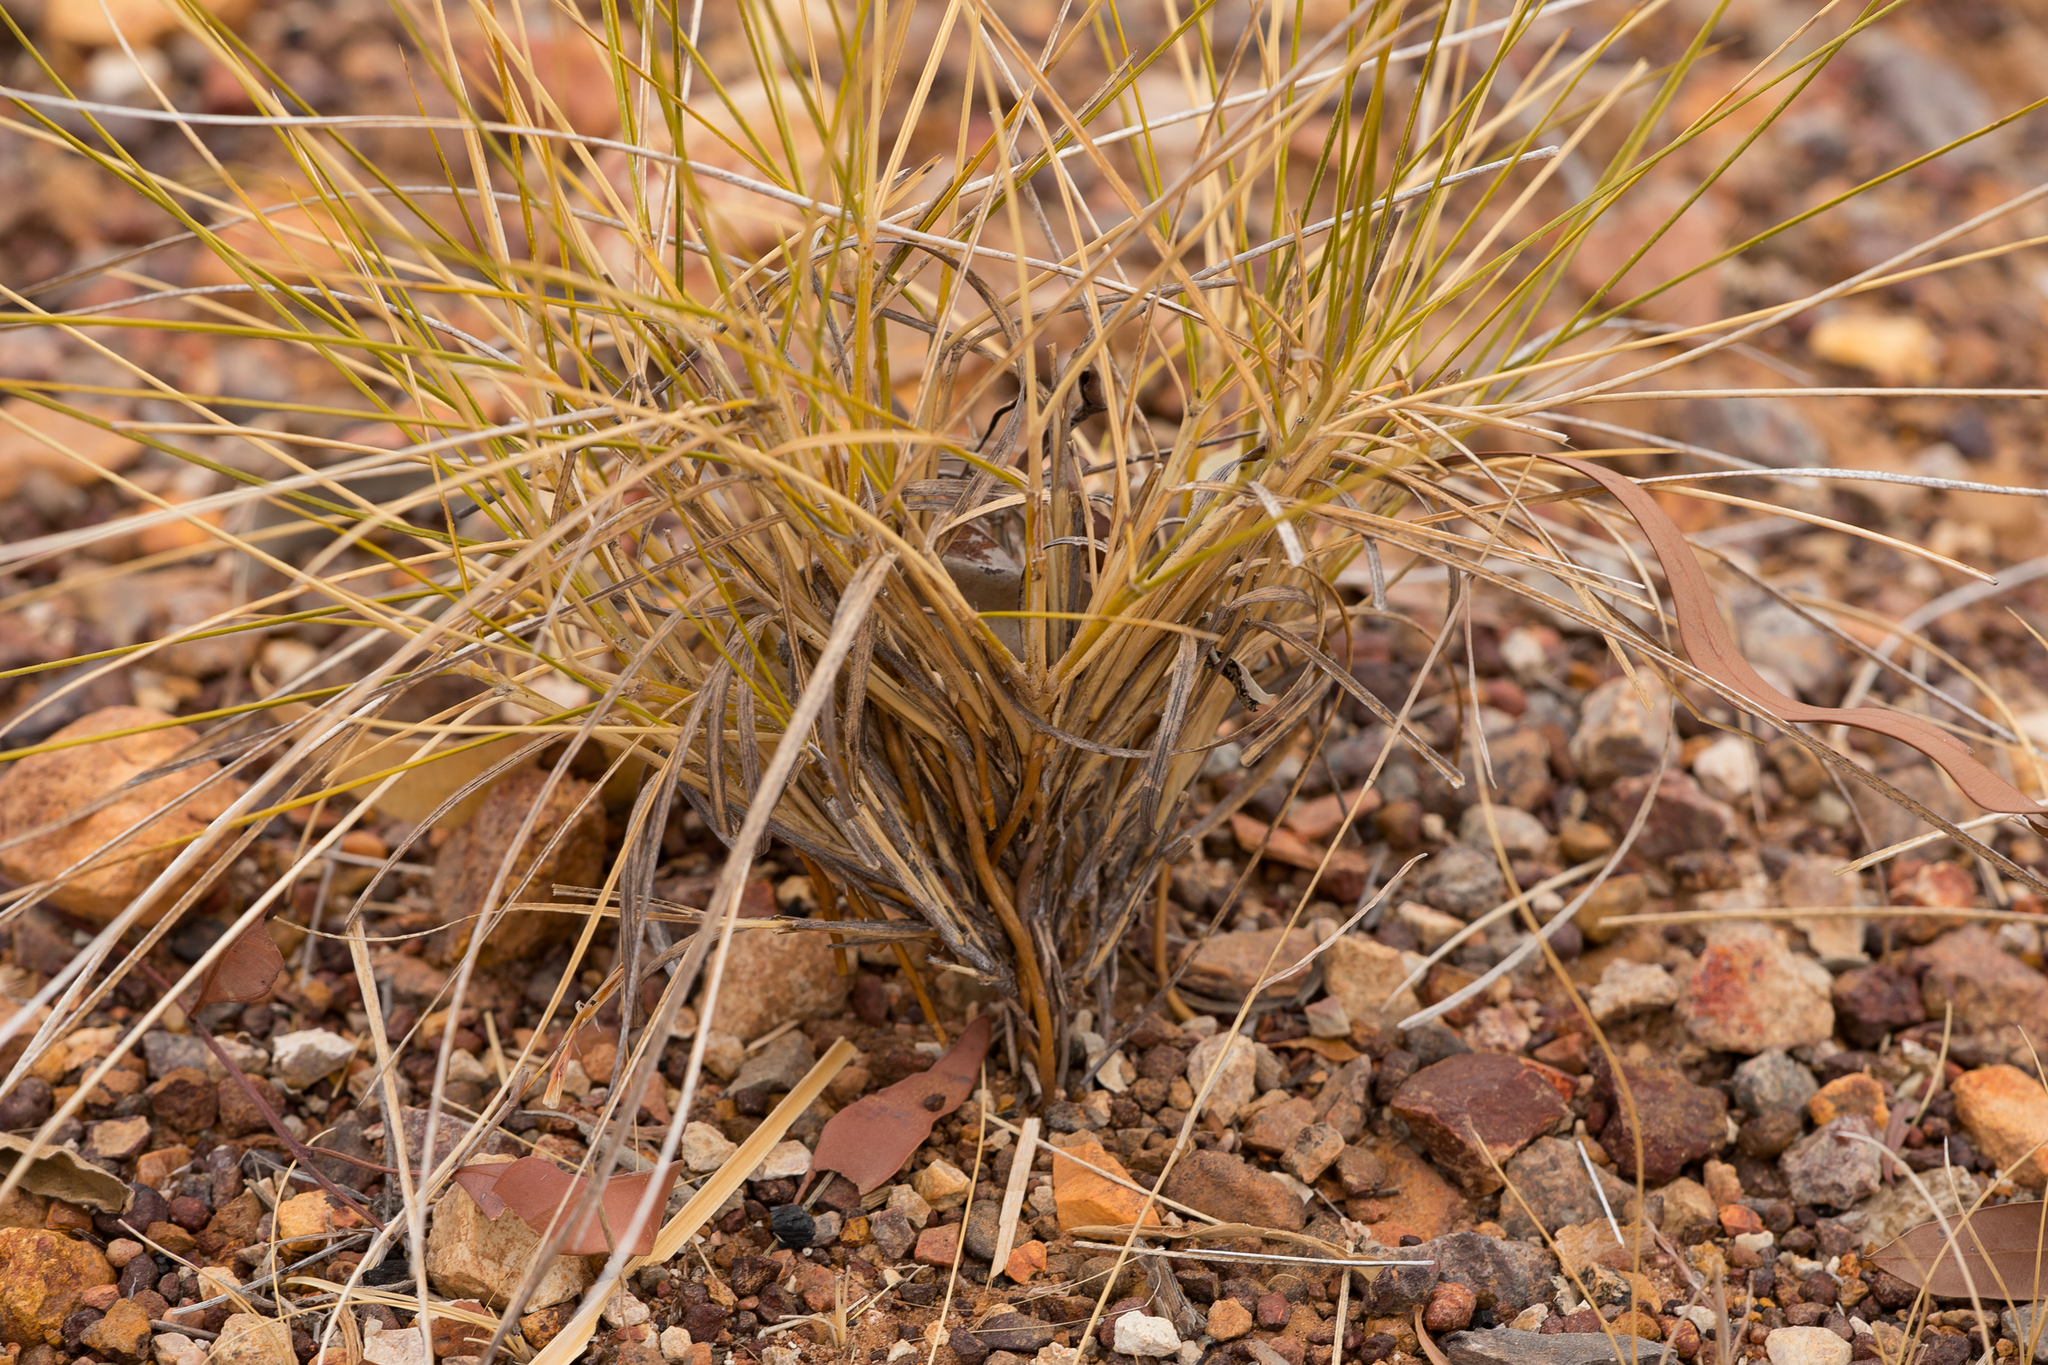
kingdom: Plantae
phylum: Tracheophyta
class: Liliopsida
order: Poales
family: Poaceae
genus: Triodia
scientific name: Triodia pungens
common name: Soft spinifex
